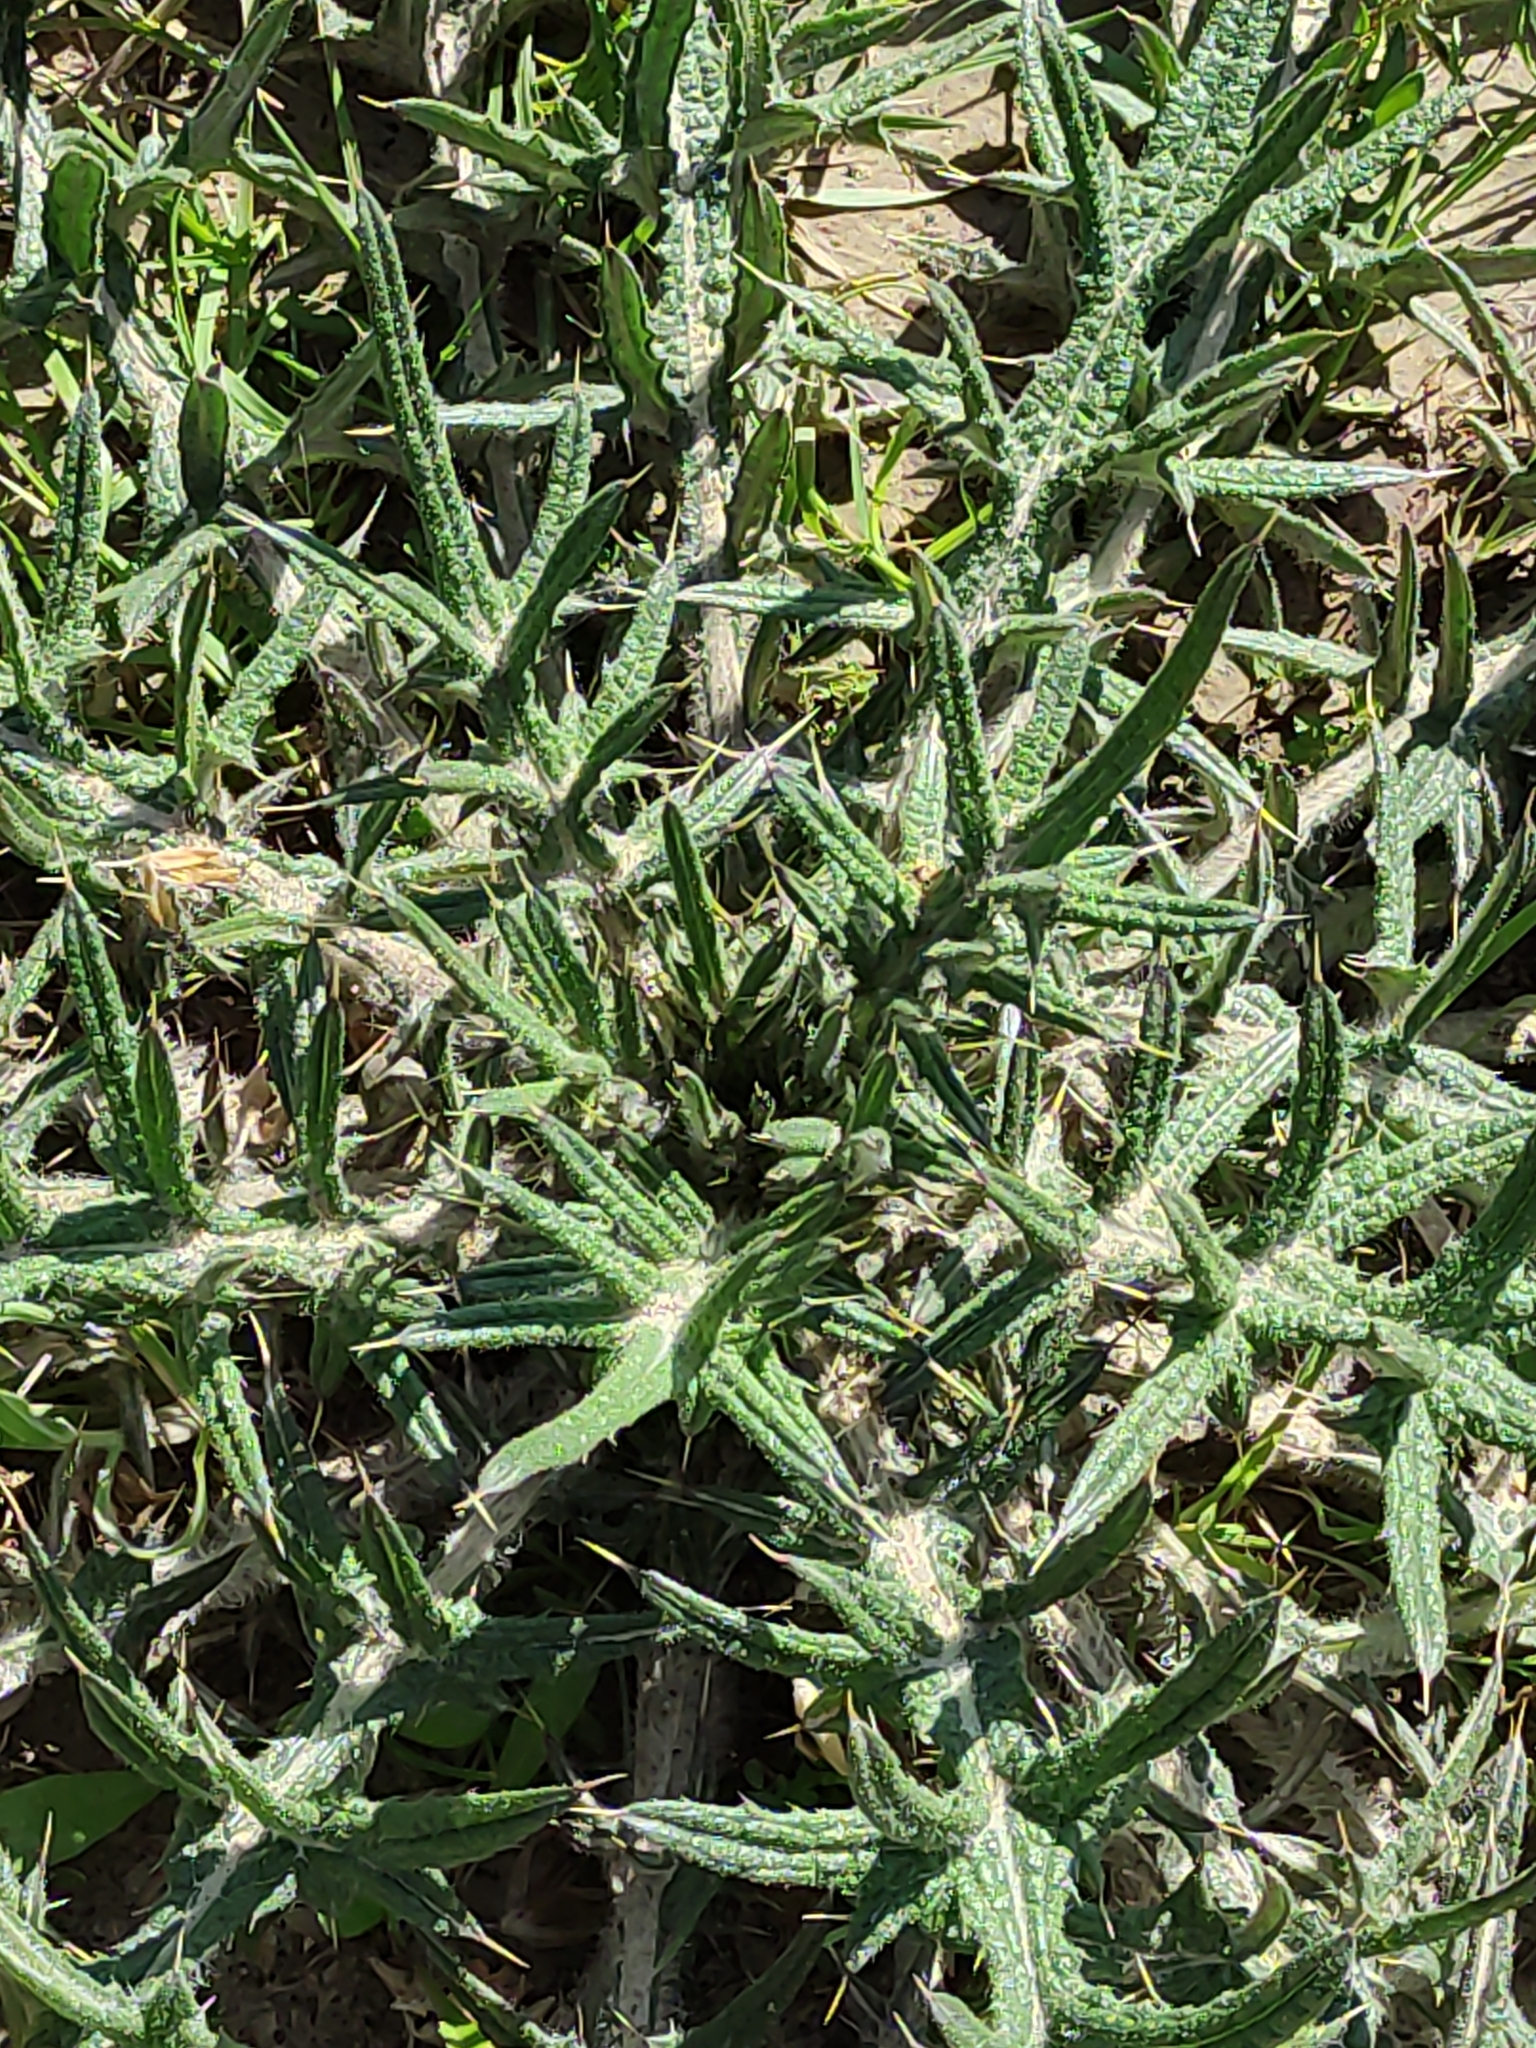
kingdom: Plantae
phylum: Tracheophyta
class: Magnoliopsida
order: Asterales
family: Asteraceae
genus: Cirsium
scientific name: Cirsium vulgare
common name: Bull thistle
